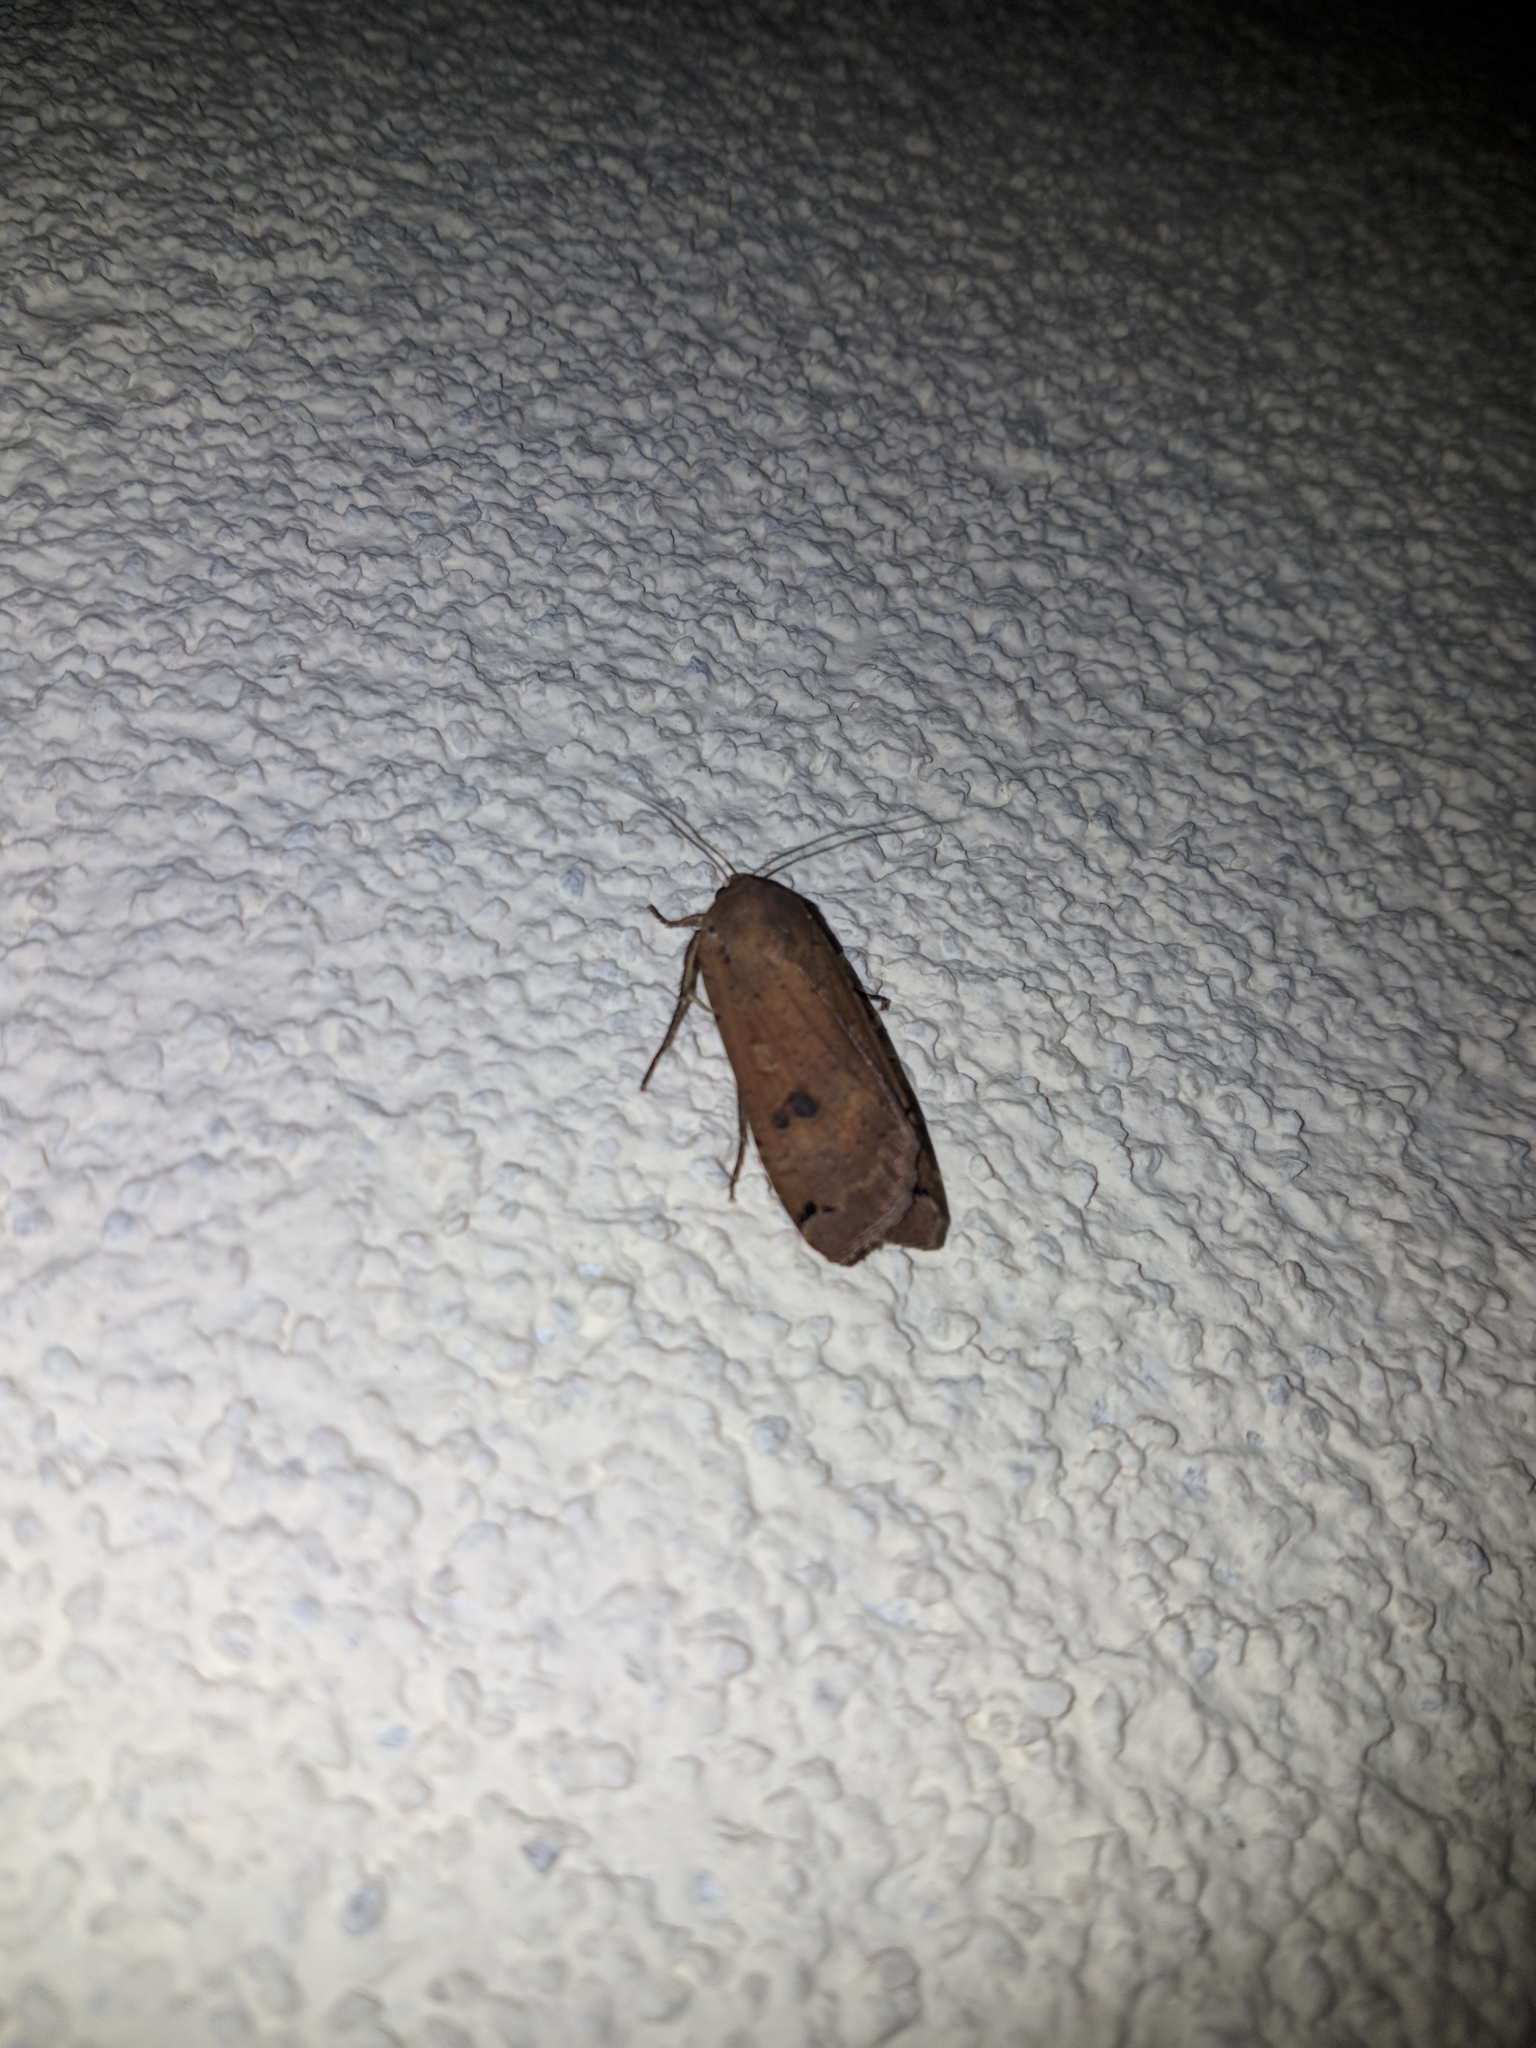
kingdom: Animalia
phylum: Arthropoda
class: Insecta
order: Lepidoptera
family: Noctuidae
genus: Noctua
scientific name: Noctua pronuba
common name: Large yellow underwing
